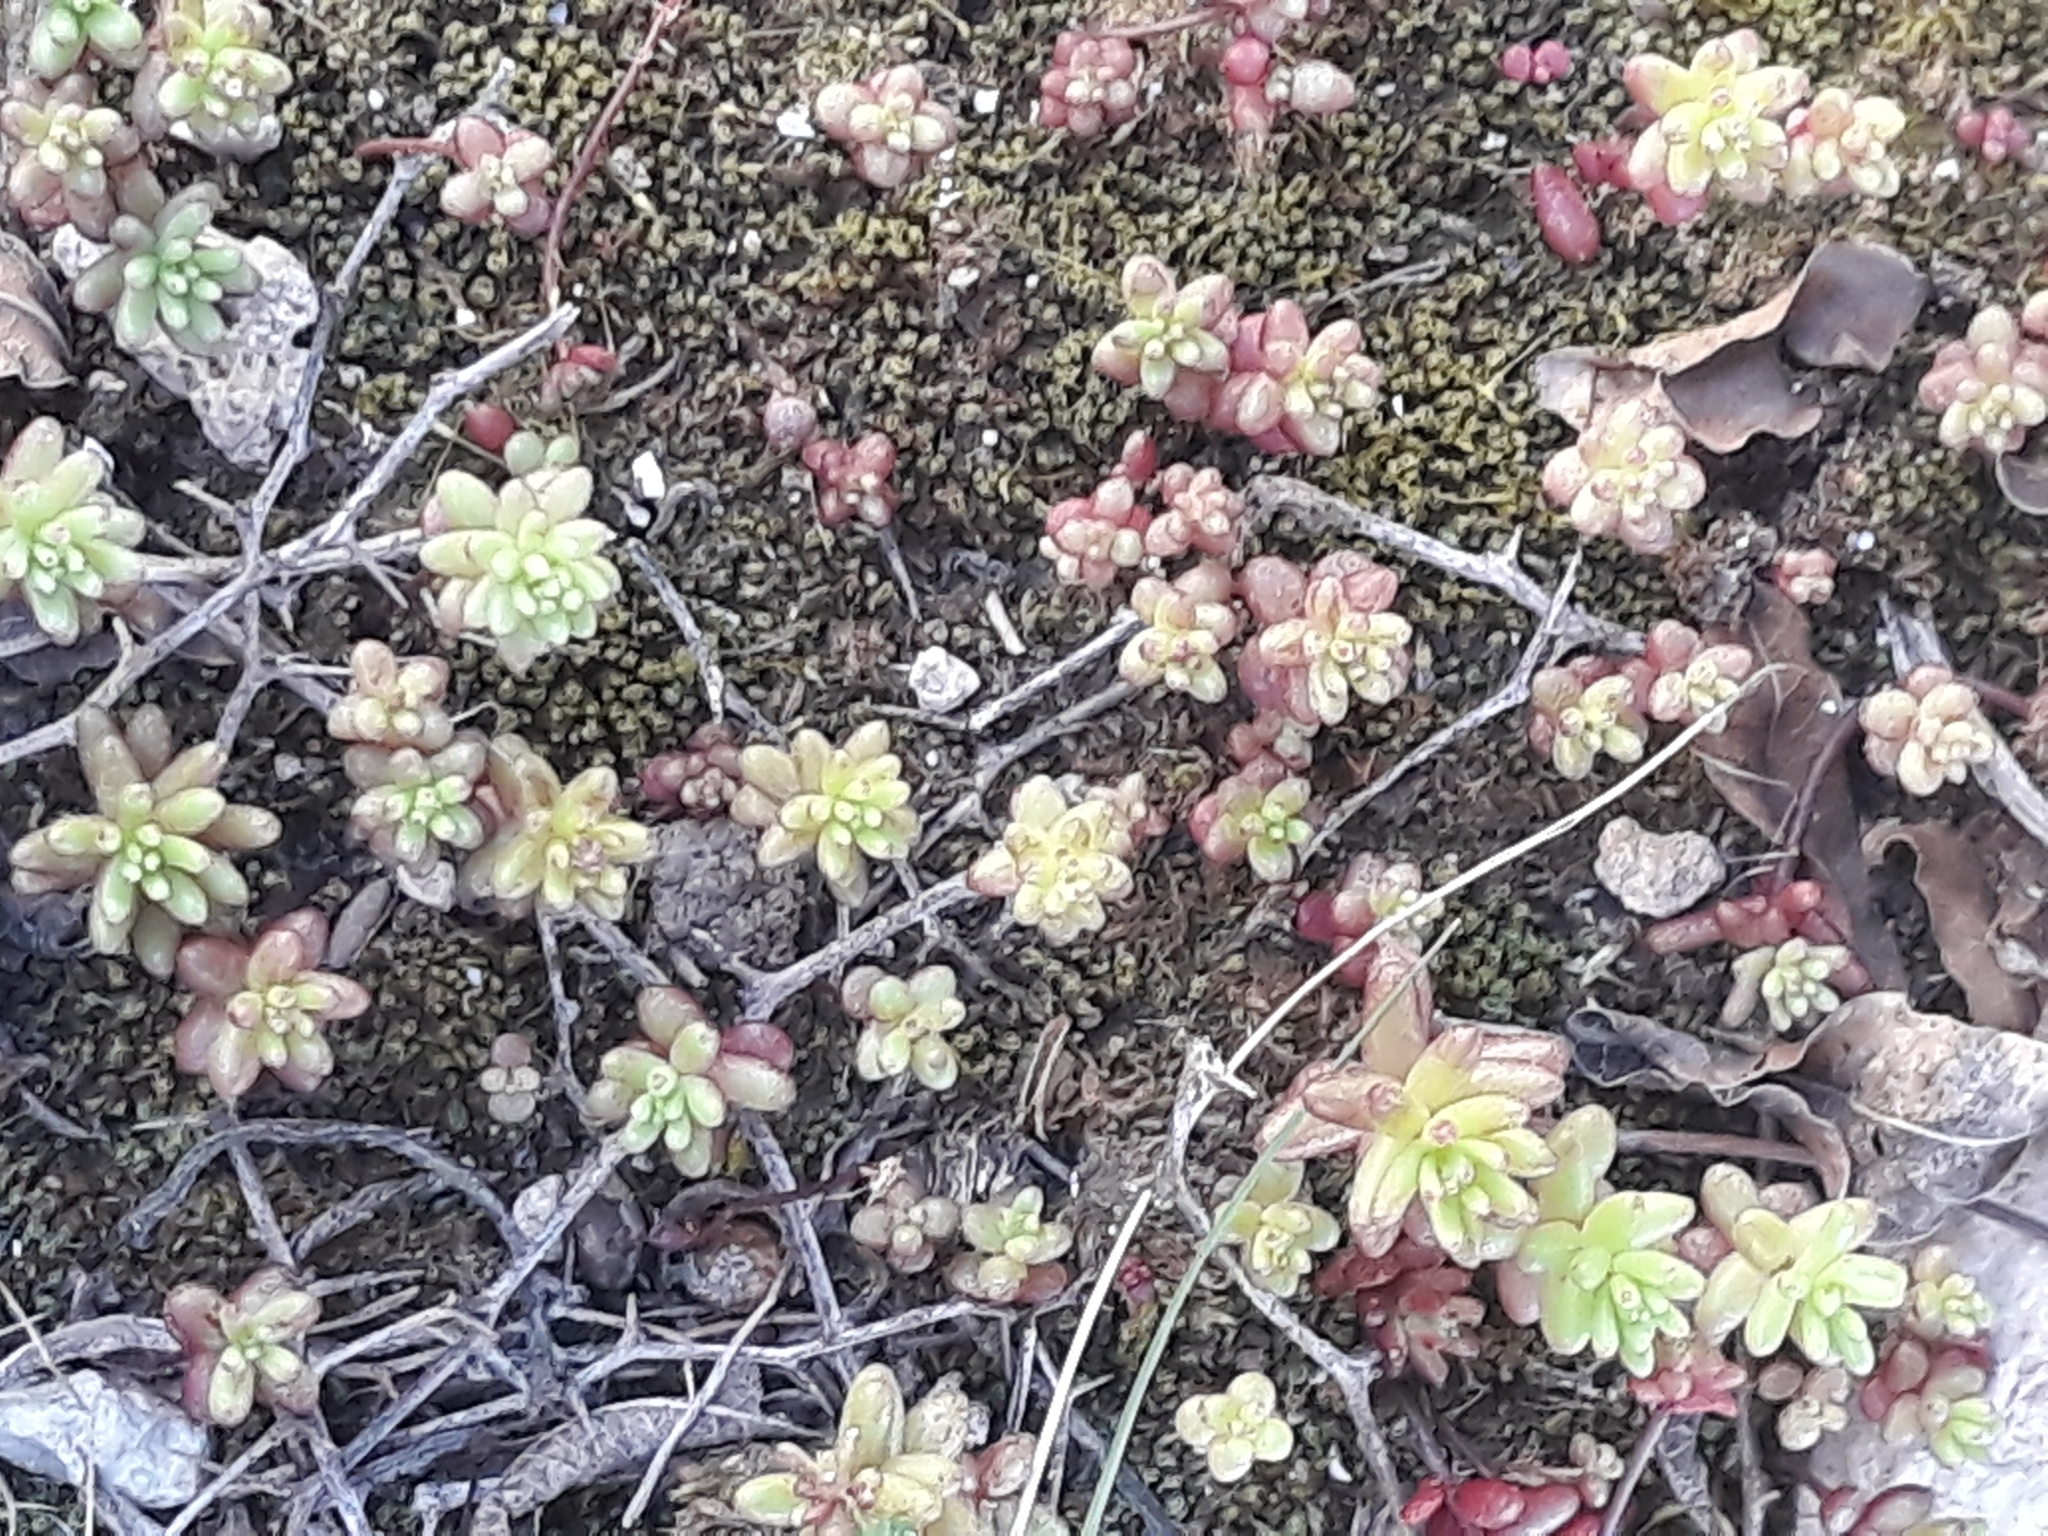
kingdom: Plantae
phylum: Tracheophyta
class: Magnoliopsida
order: Saxifragales
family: Crassulaceae
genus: Sedum
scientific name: Sedum caeruleum
